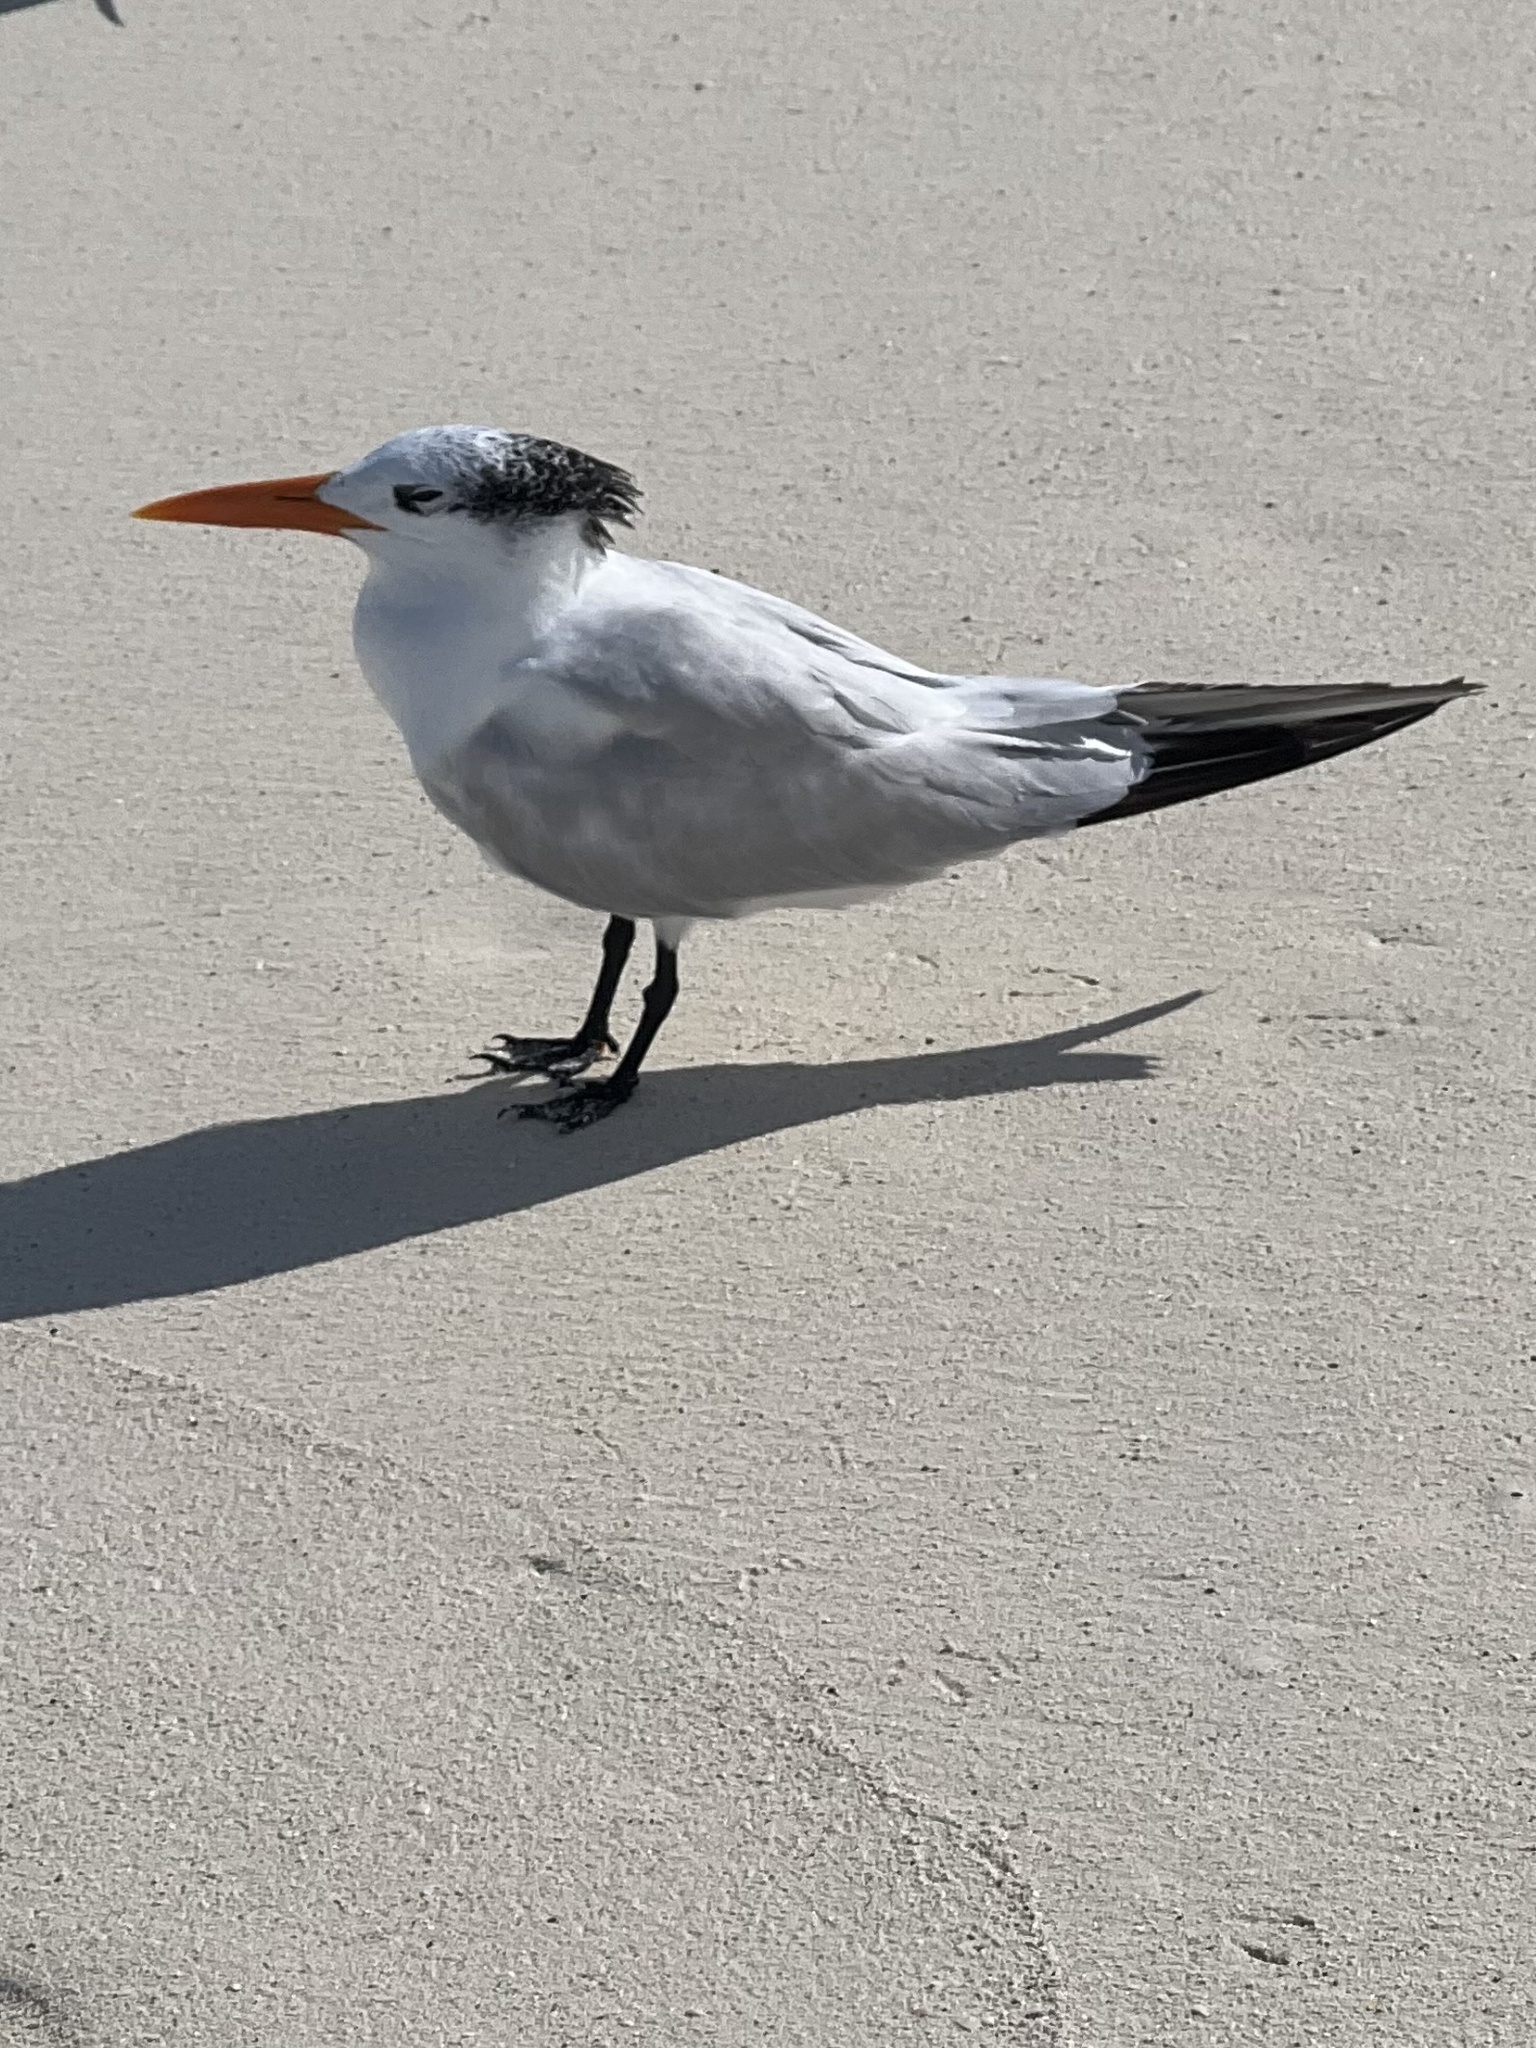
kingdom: Animalia
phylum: Chordata
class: Aves
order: Charadriiformes
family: Laridae
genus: Thalasseus
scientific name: Thalasseus maximus
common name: Royal tern
